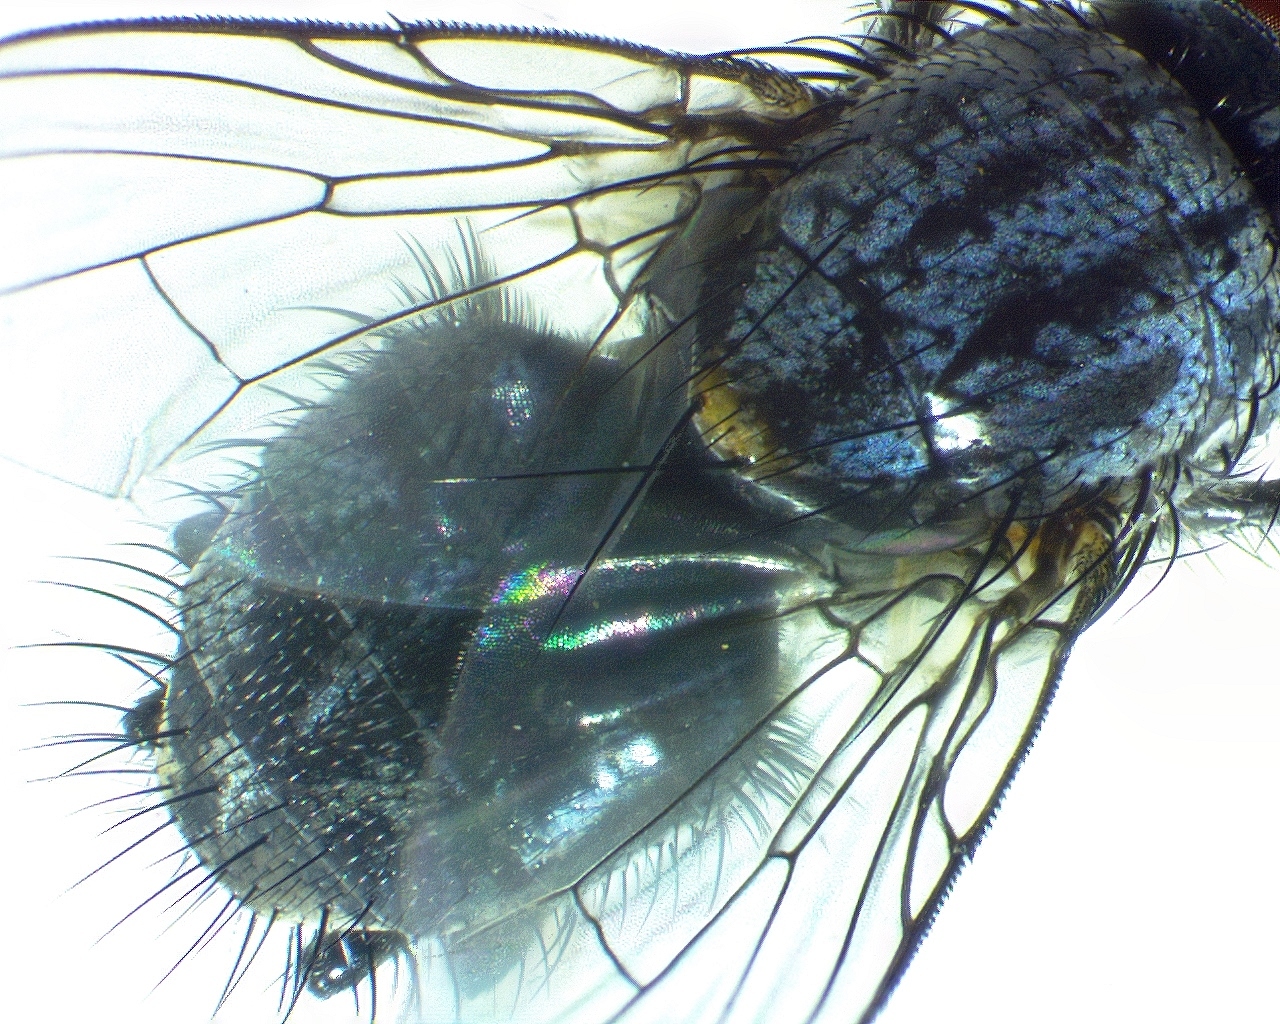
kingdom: Animalia
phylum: Arthropoda
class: Insecta
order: Diptera
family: Muscidae
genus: Muscina
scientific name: Muscina levida
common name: House fly
